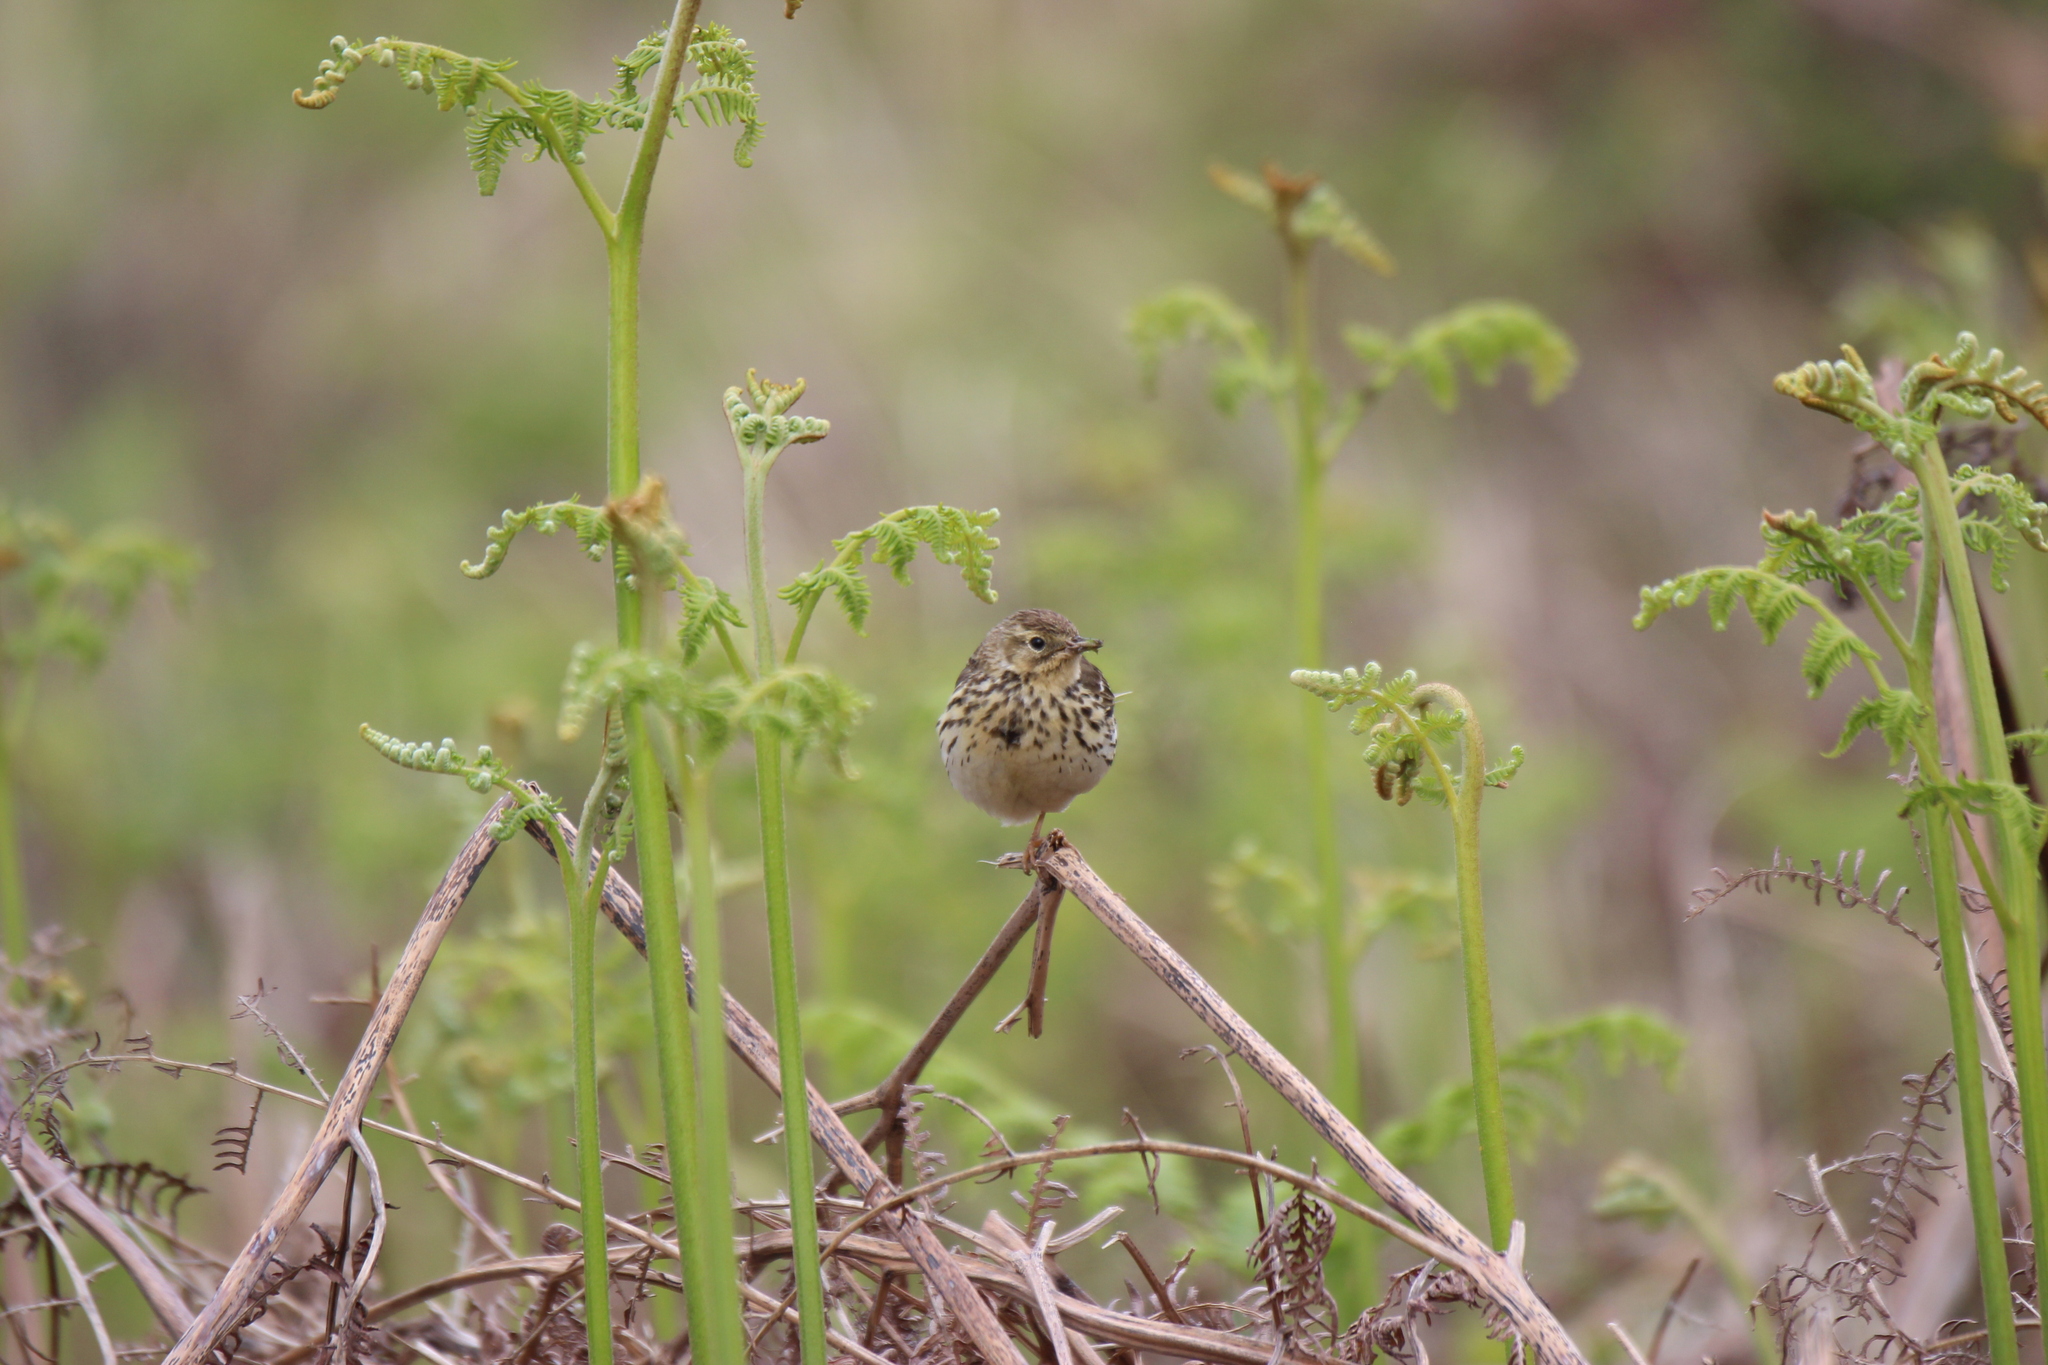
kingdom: Animalia
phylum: Chordata
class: Aves
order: Passeriformes
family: Motacillidae
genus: Anthus
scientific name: Anthus pratensis
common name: Meadow pipit
